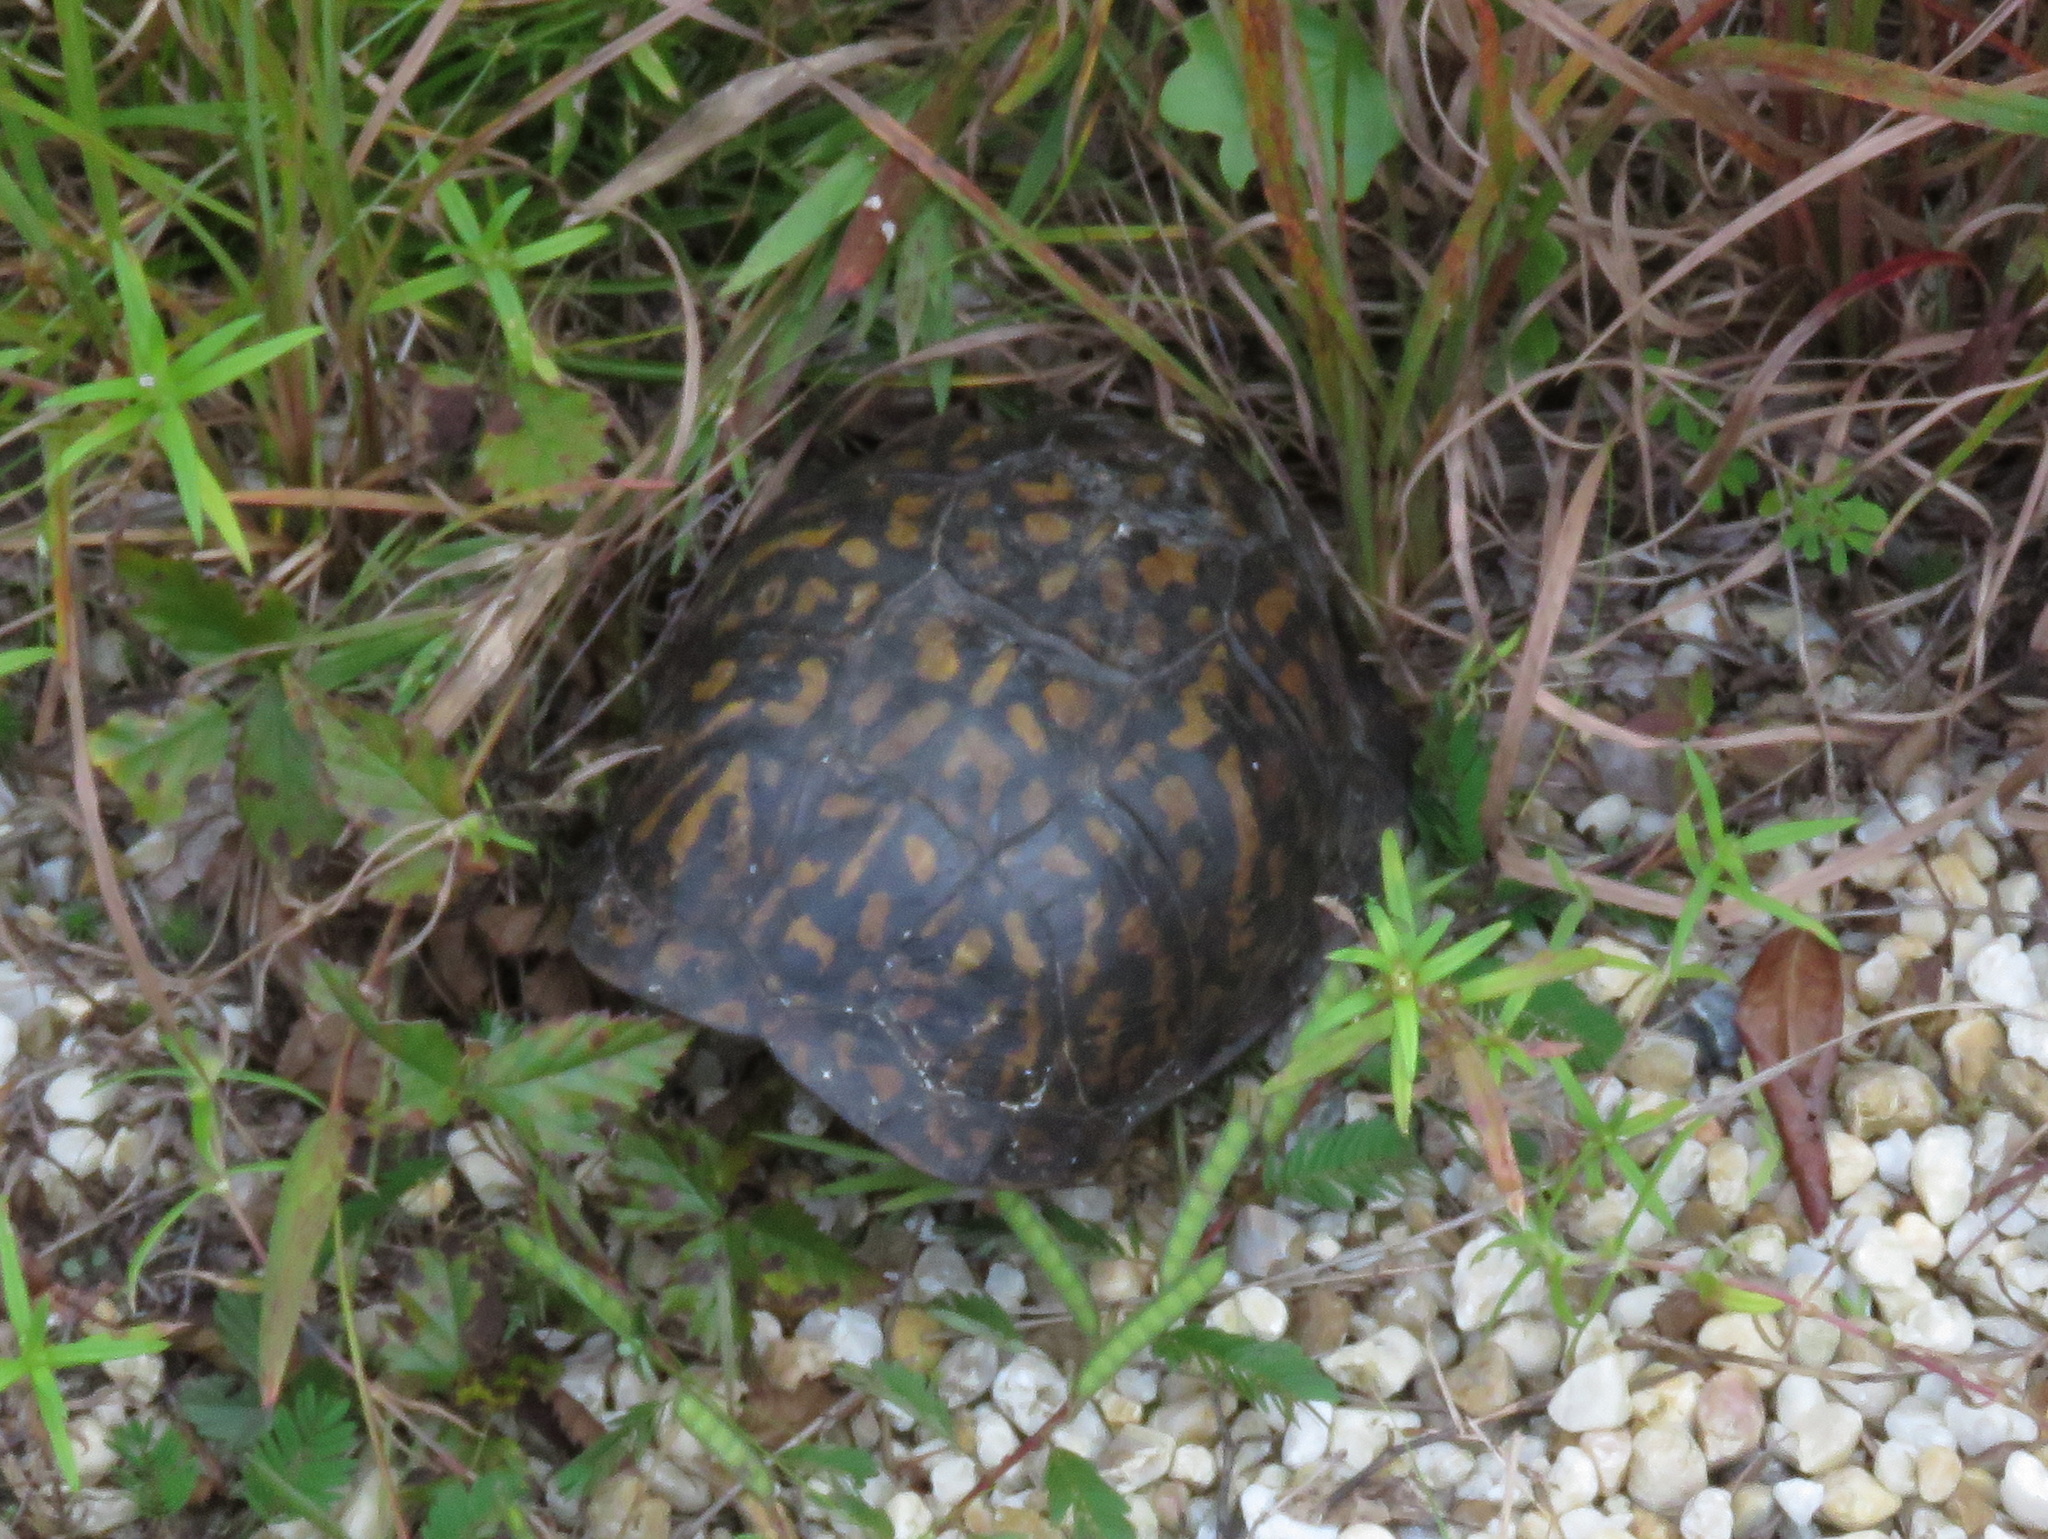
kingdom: Animalia
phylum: Chordata
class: Testudines
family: Emydidae
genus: Terrapene
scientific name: Terrapene carolina
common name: Common box turtle
